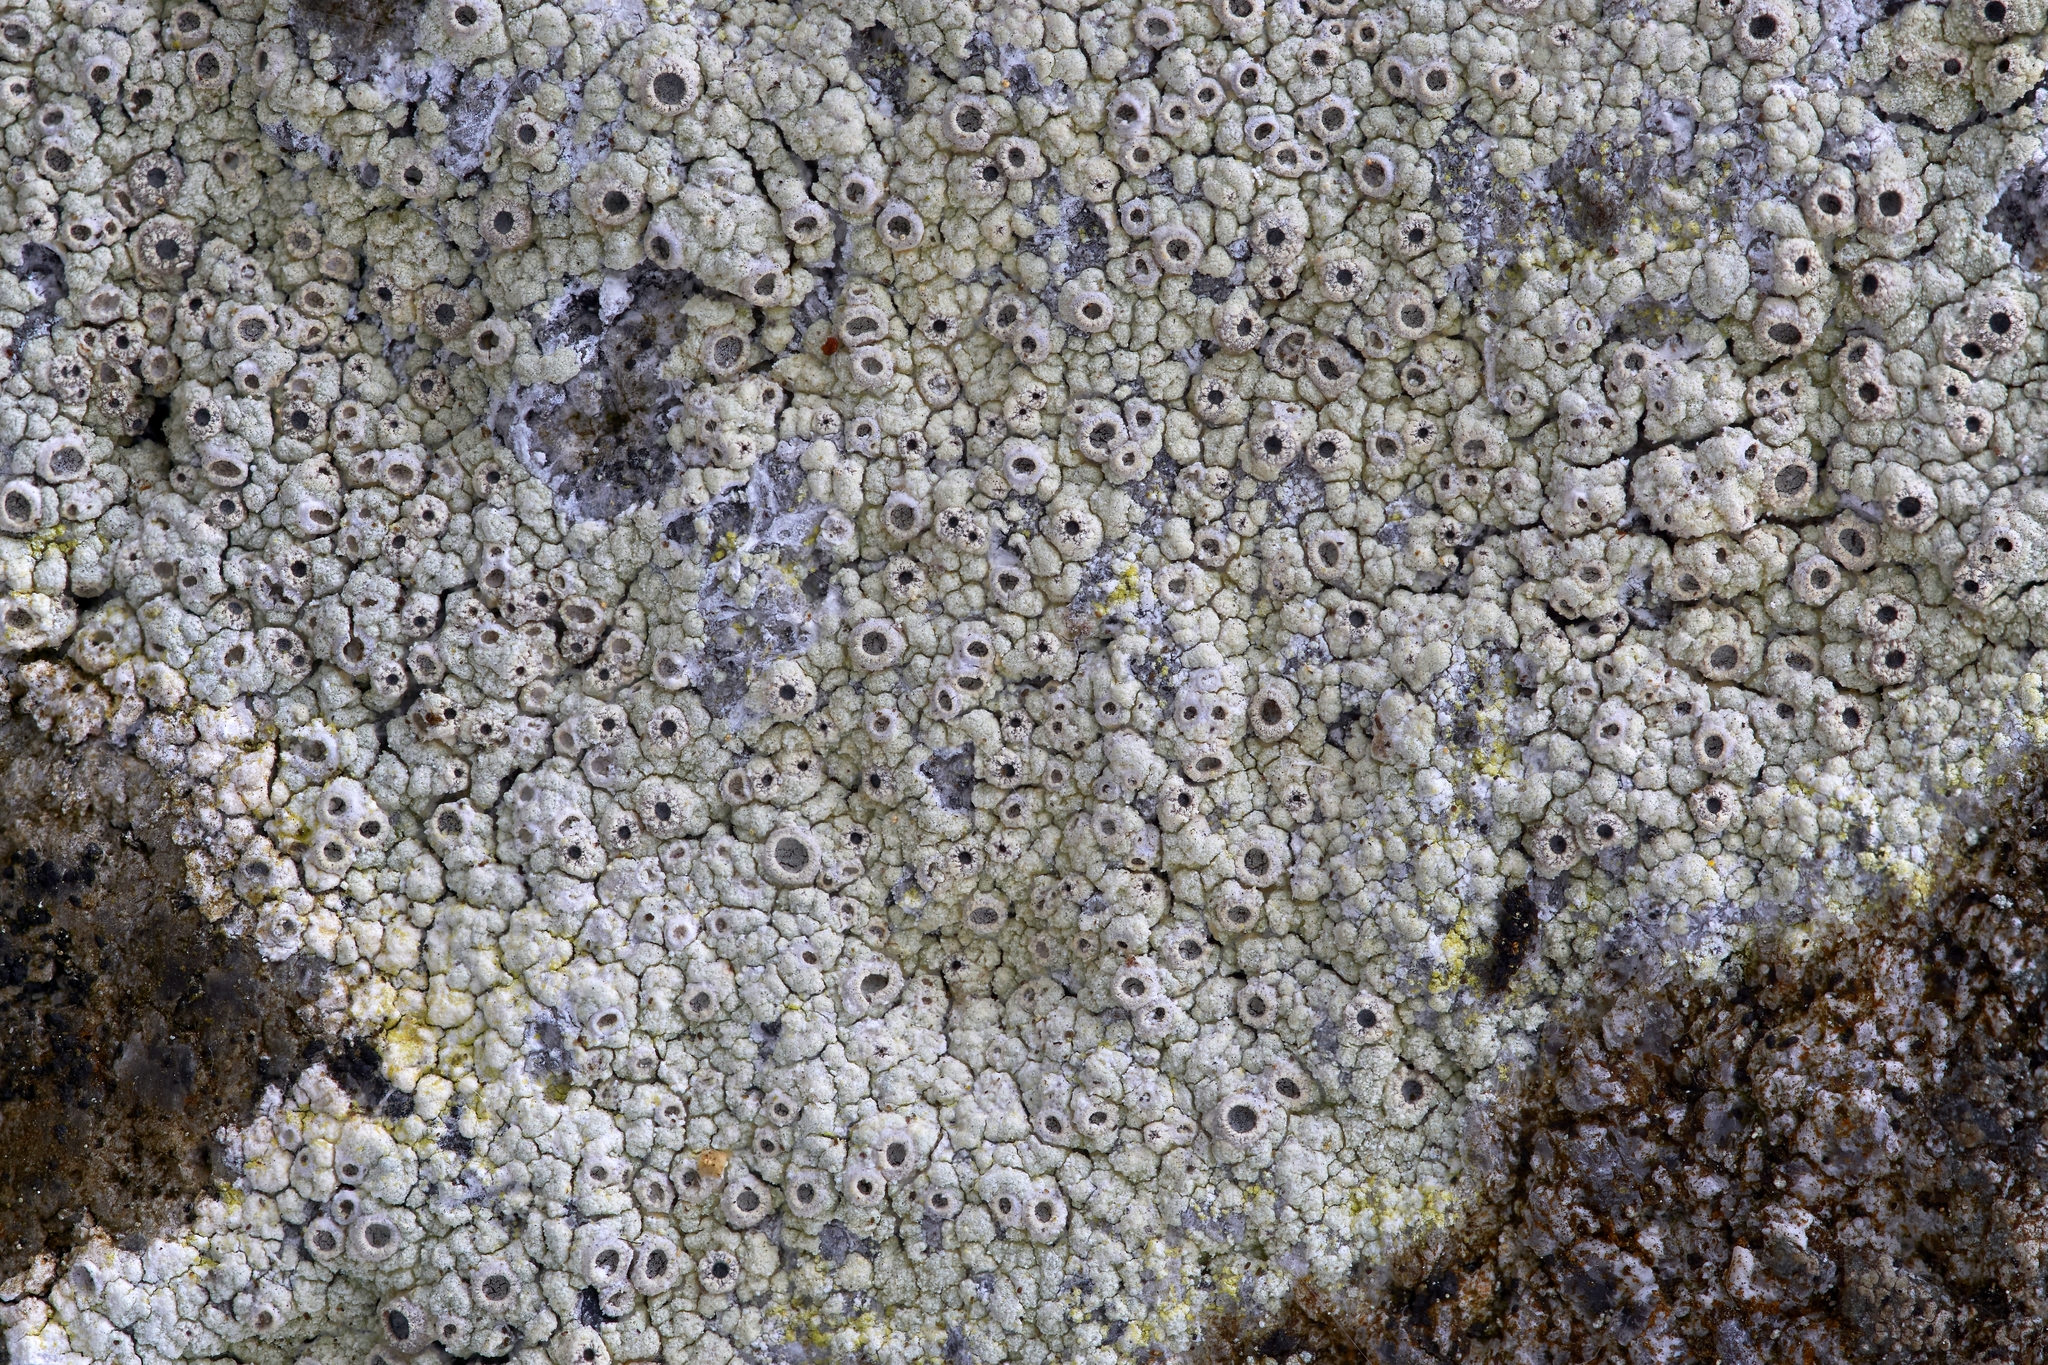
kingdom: Fungi
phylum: Ascomycota
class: Lecanoromycetes
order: Ostropales
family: Graphidaceae
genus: Diploschistes
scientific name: Diploschistes scruposus
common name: Crater lichen
